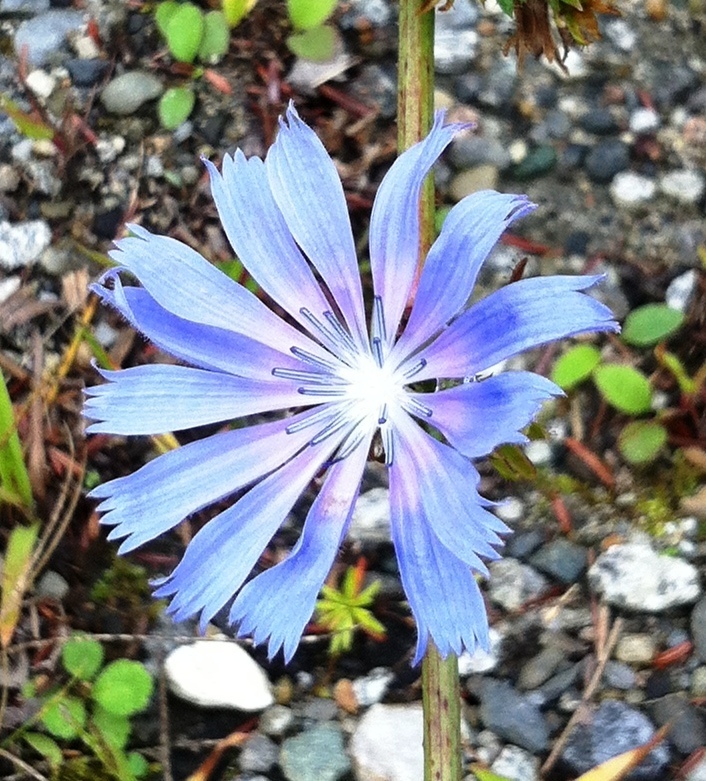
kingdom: Plantae
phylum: Tracheophyta
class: Magnoliopsida
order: Asterales
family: Asteraceae
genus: Cichorium
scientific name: Cichorium intybus
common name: Chicory
